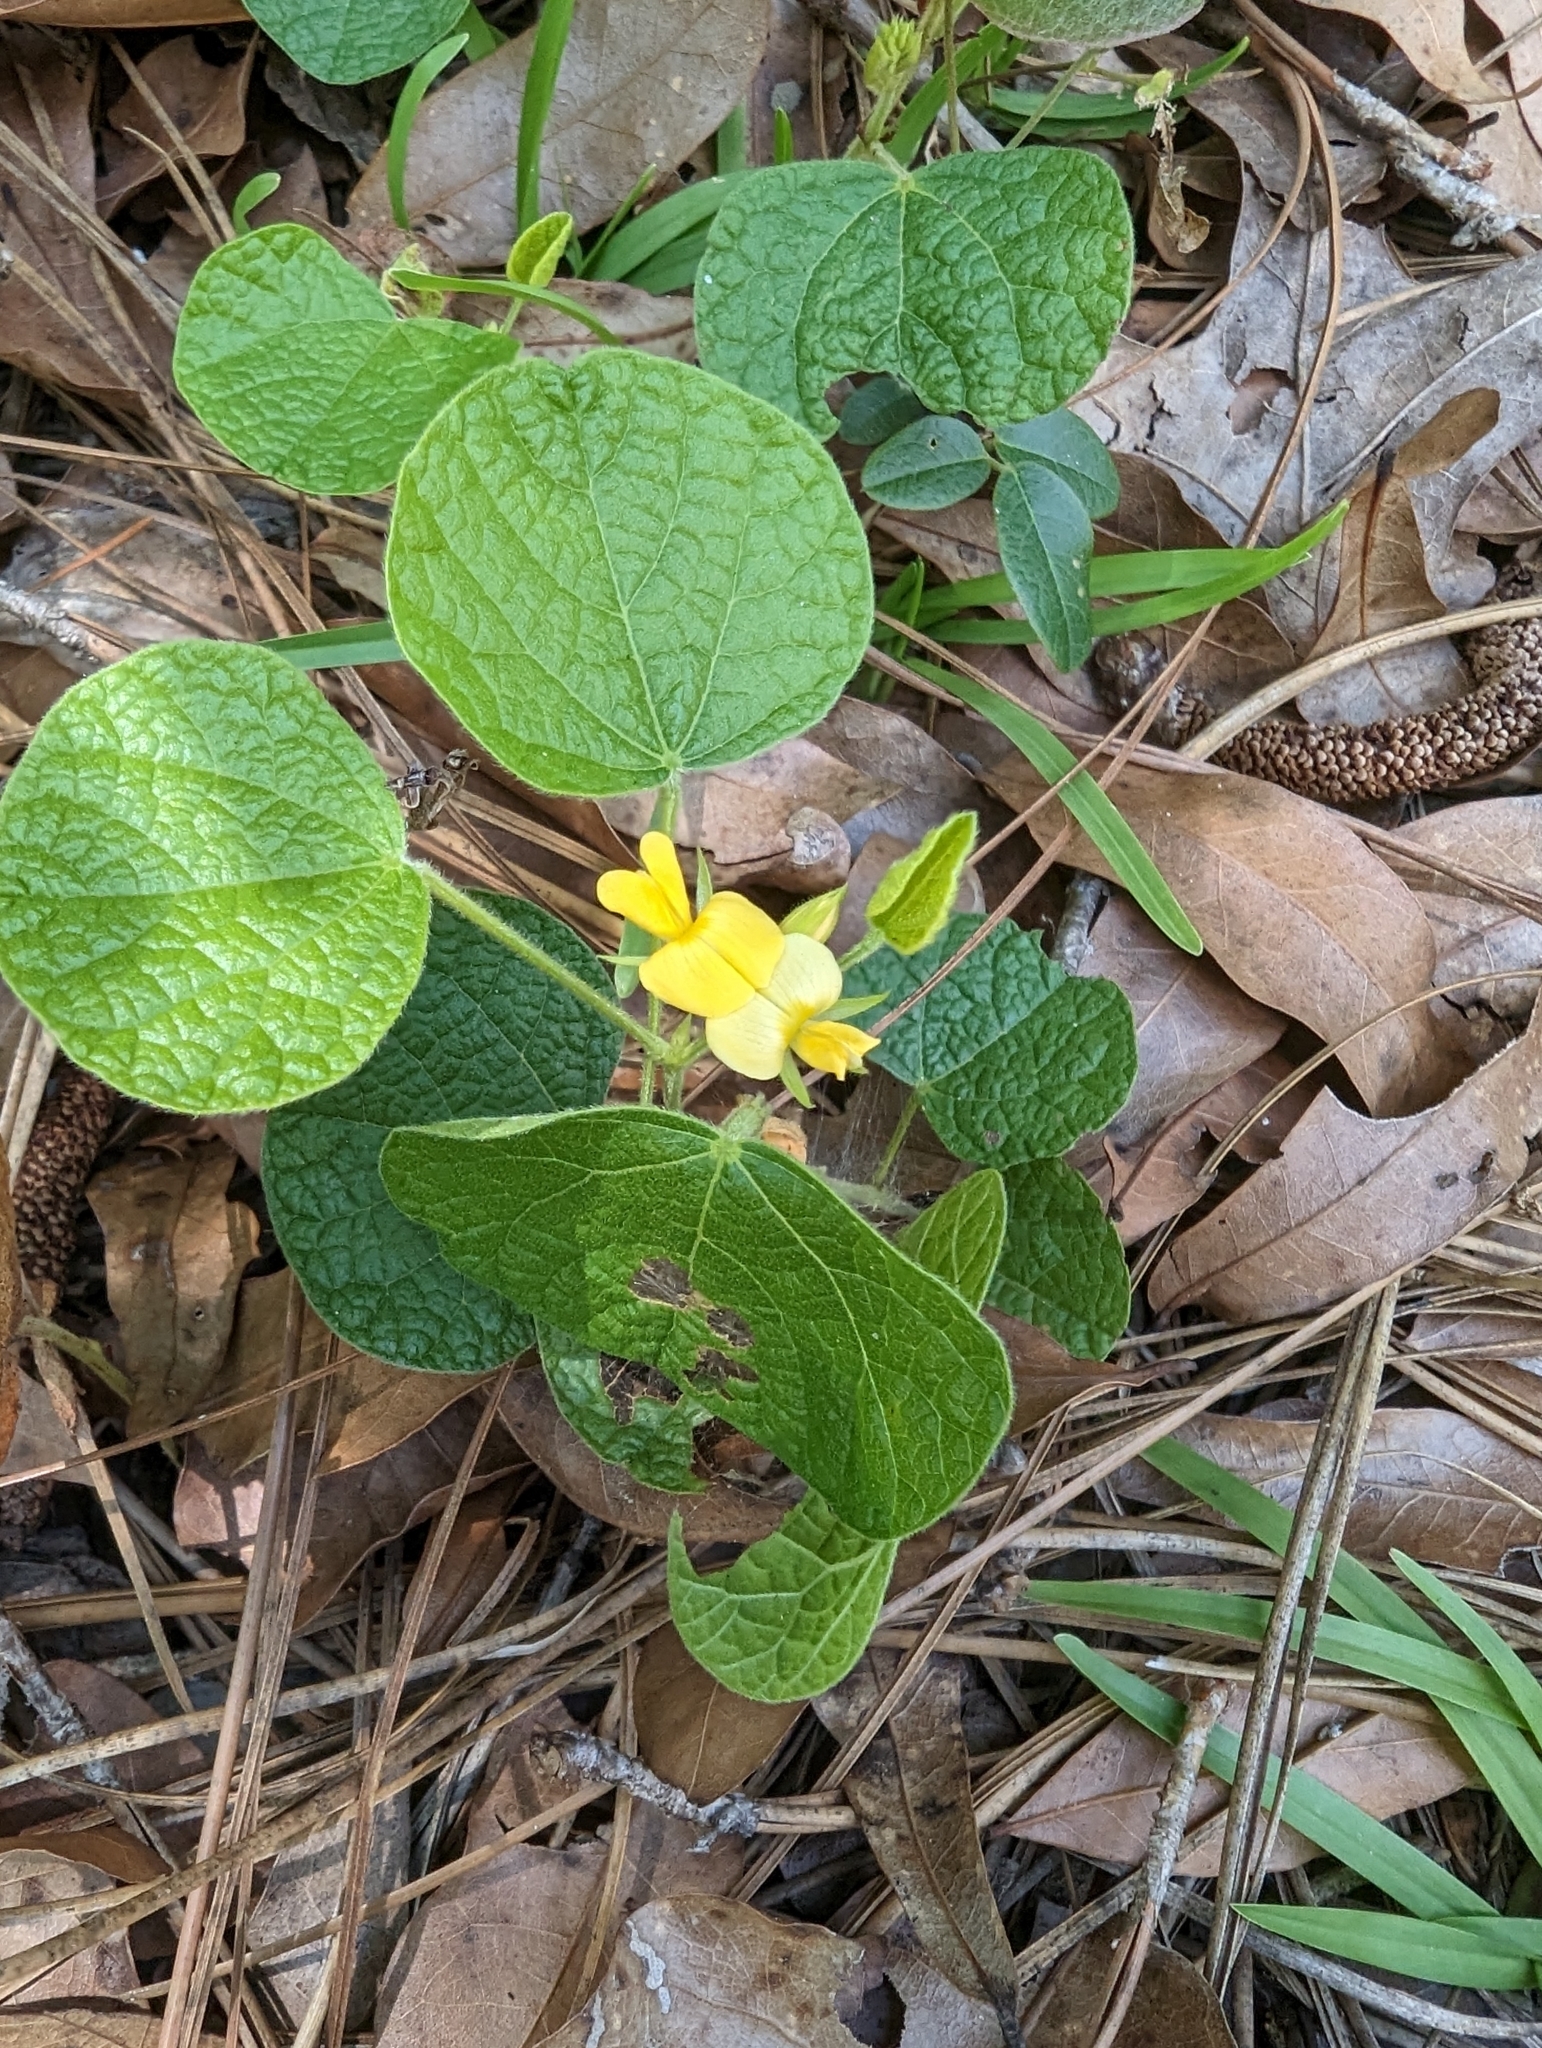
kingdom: Plantae
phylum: Tracheophyta
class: Magnoliopsida
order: Fabales
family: Fabaceae
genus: Rhynchosia
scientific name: Rhynchosia reniformis
